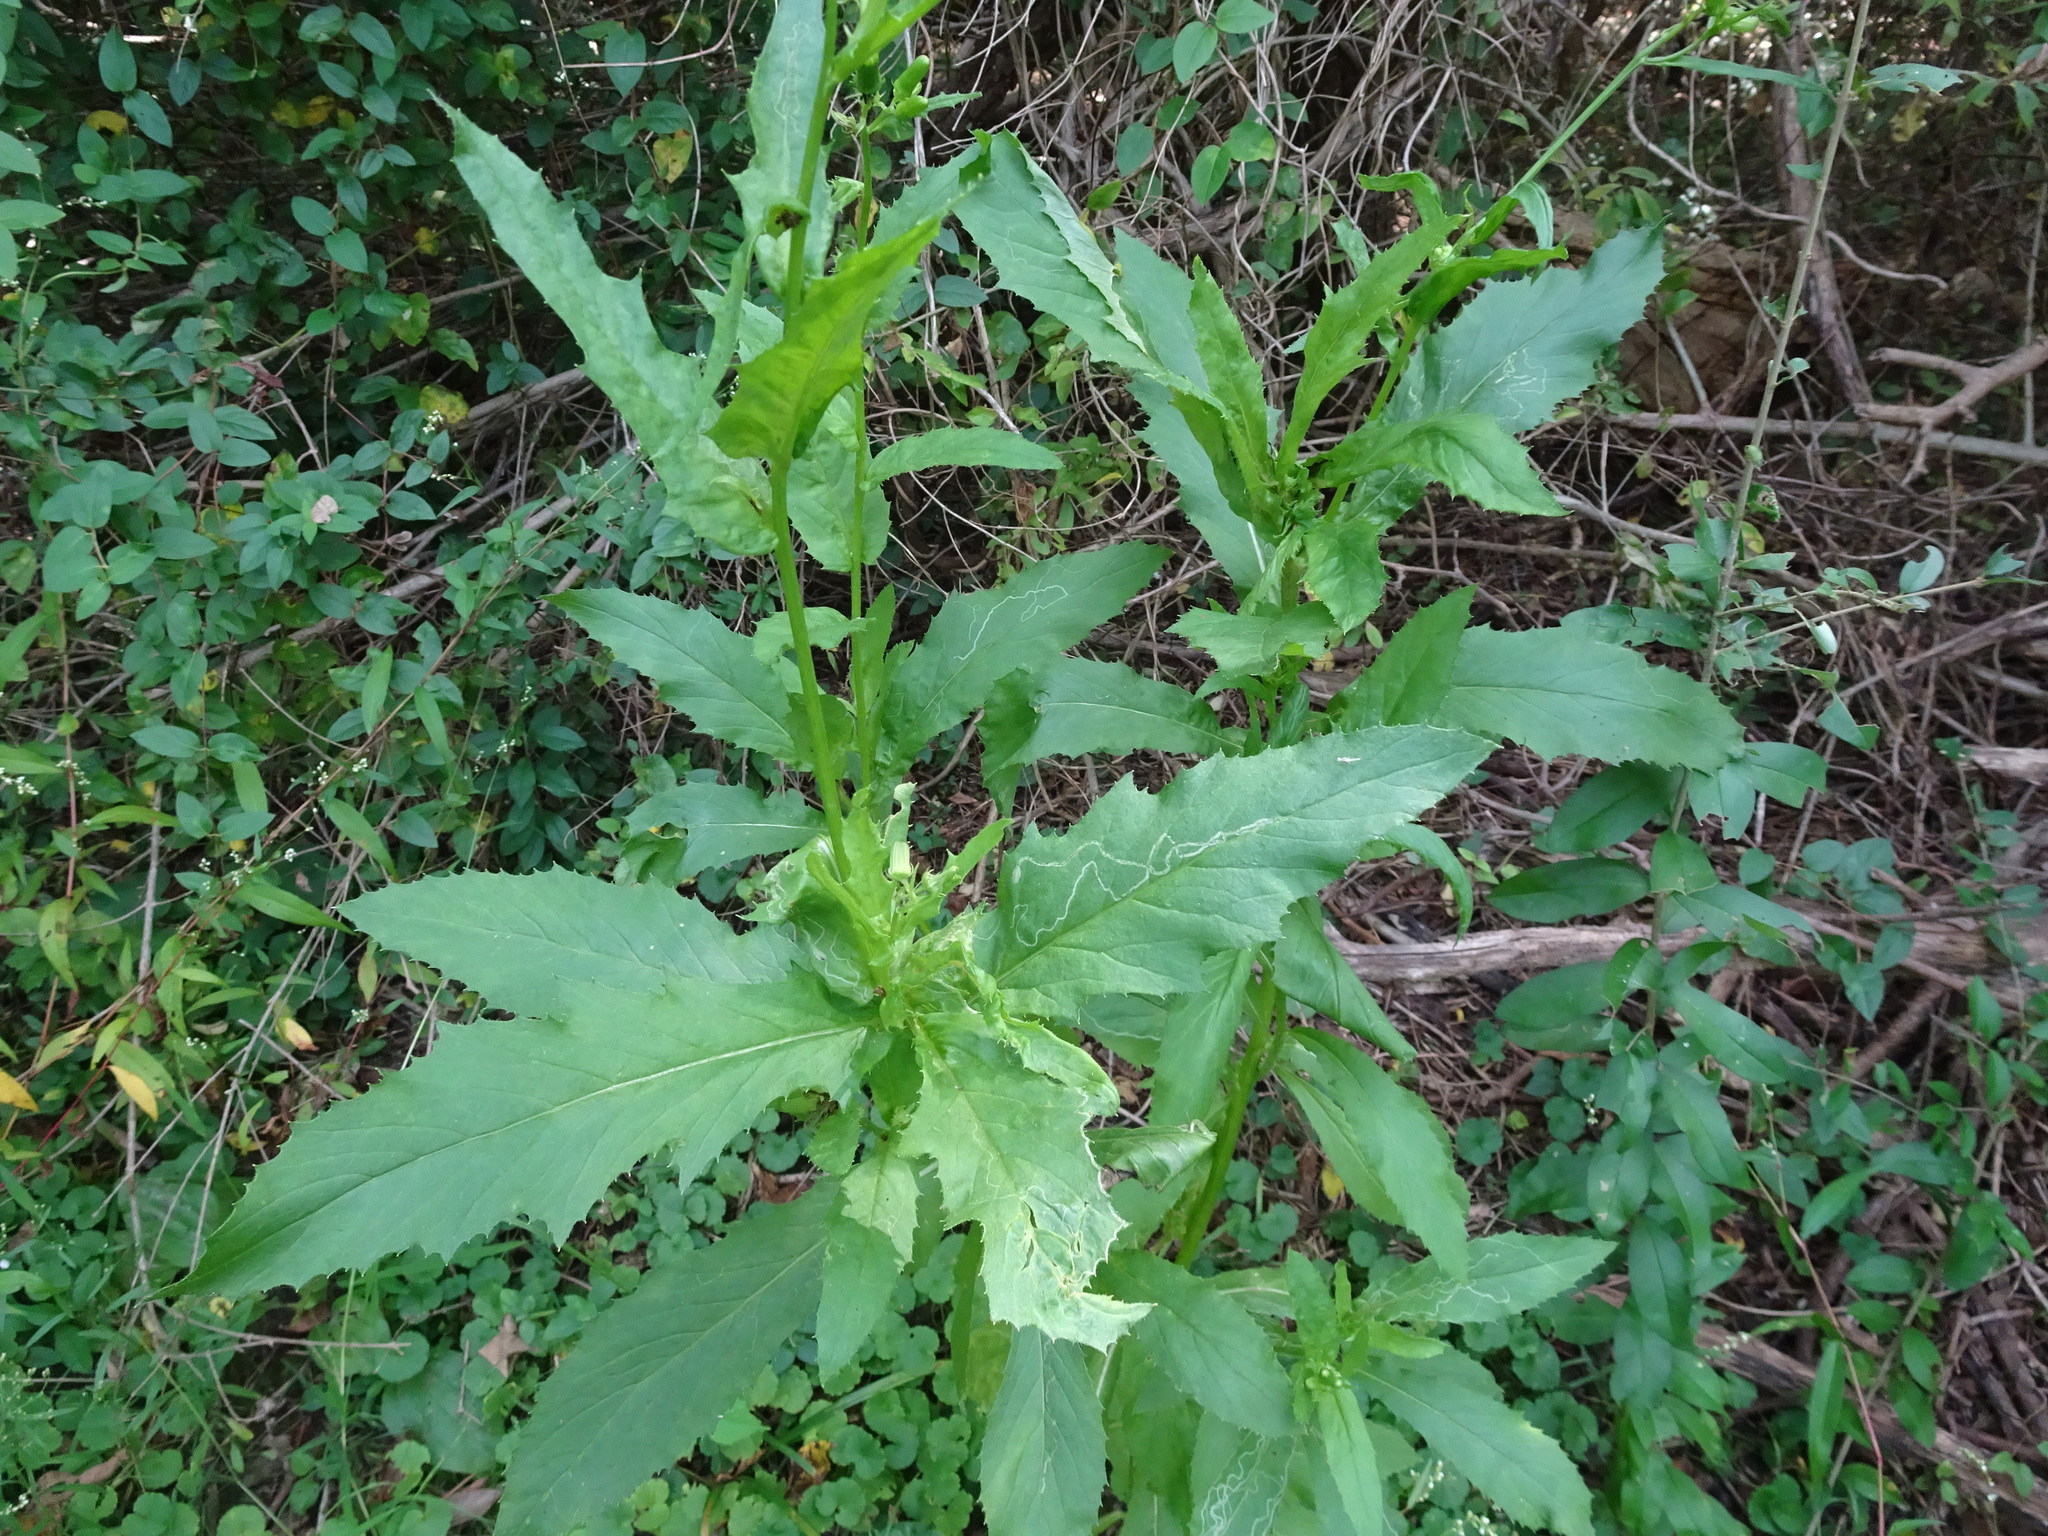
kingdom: Plantae
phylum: Tracheophyta
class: Magnoliopsida
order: Asterales
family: Asteraceae
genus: Erechtites
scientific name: Erechtites hieraciifolius
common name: American burnweed
